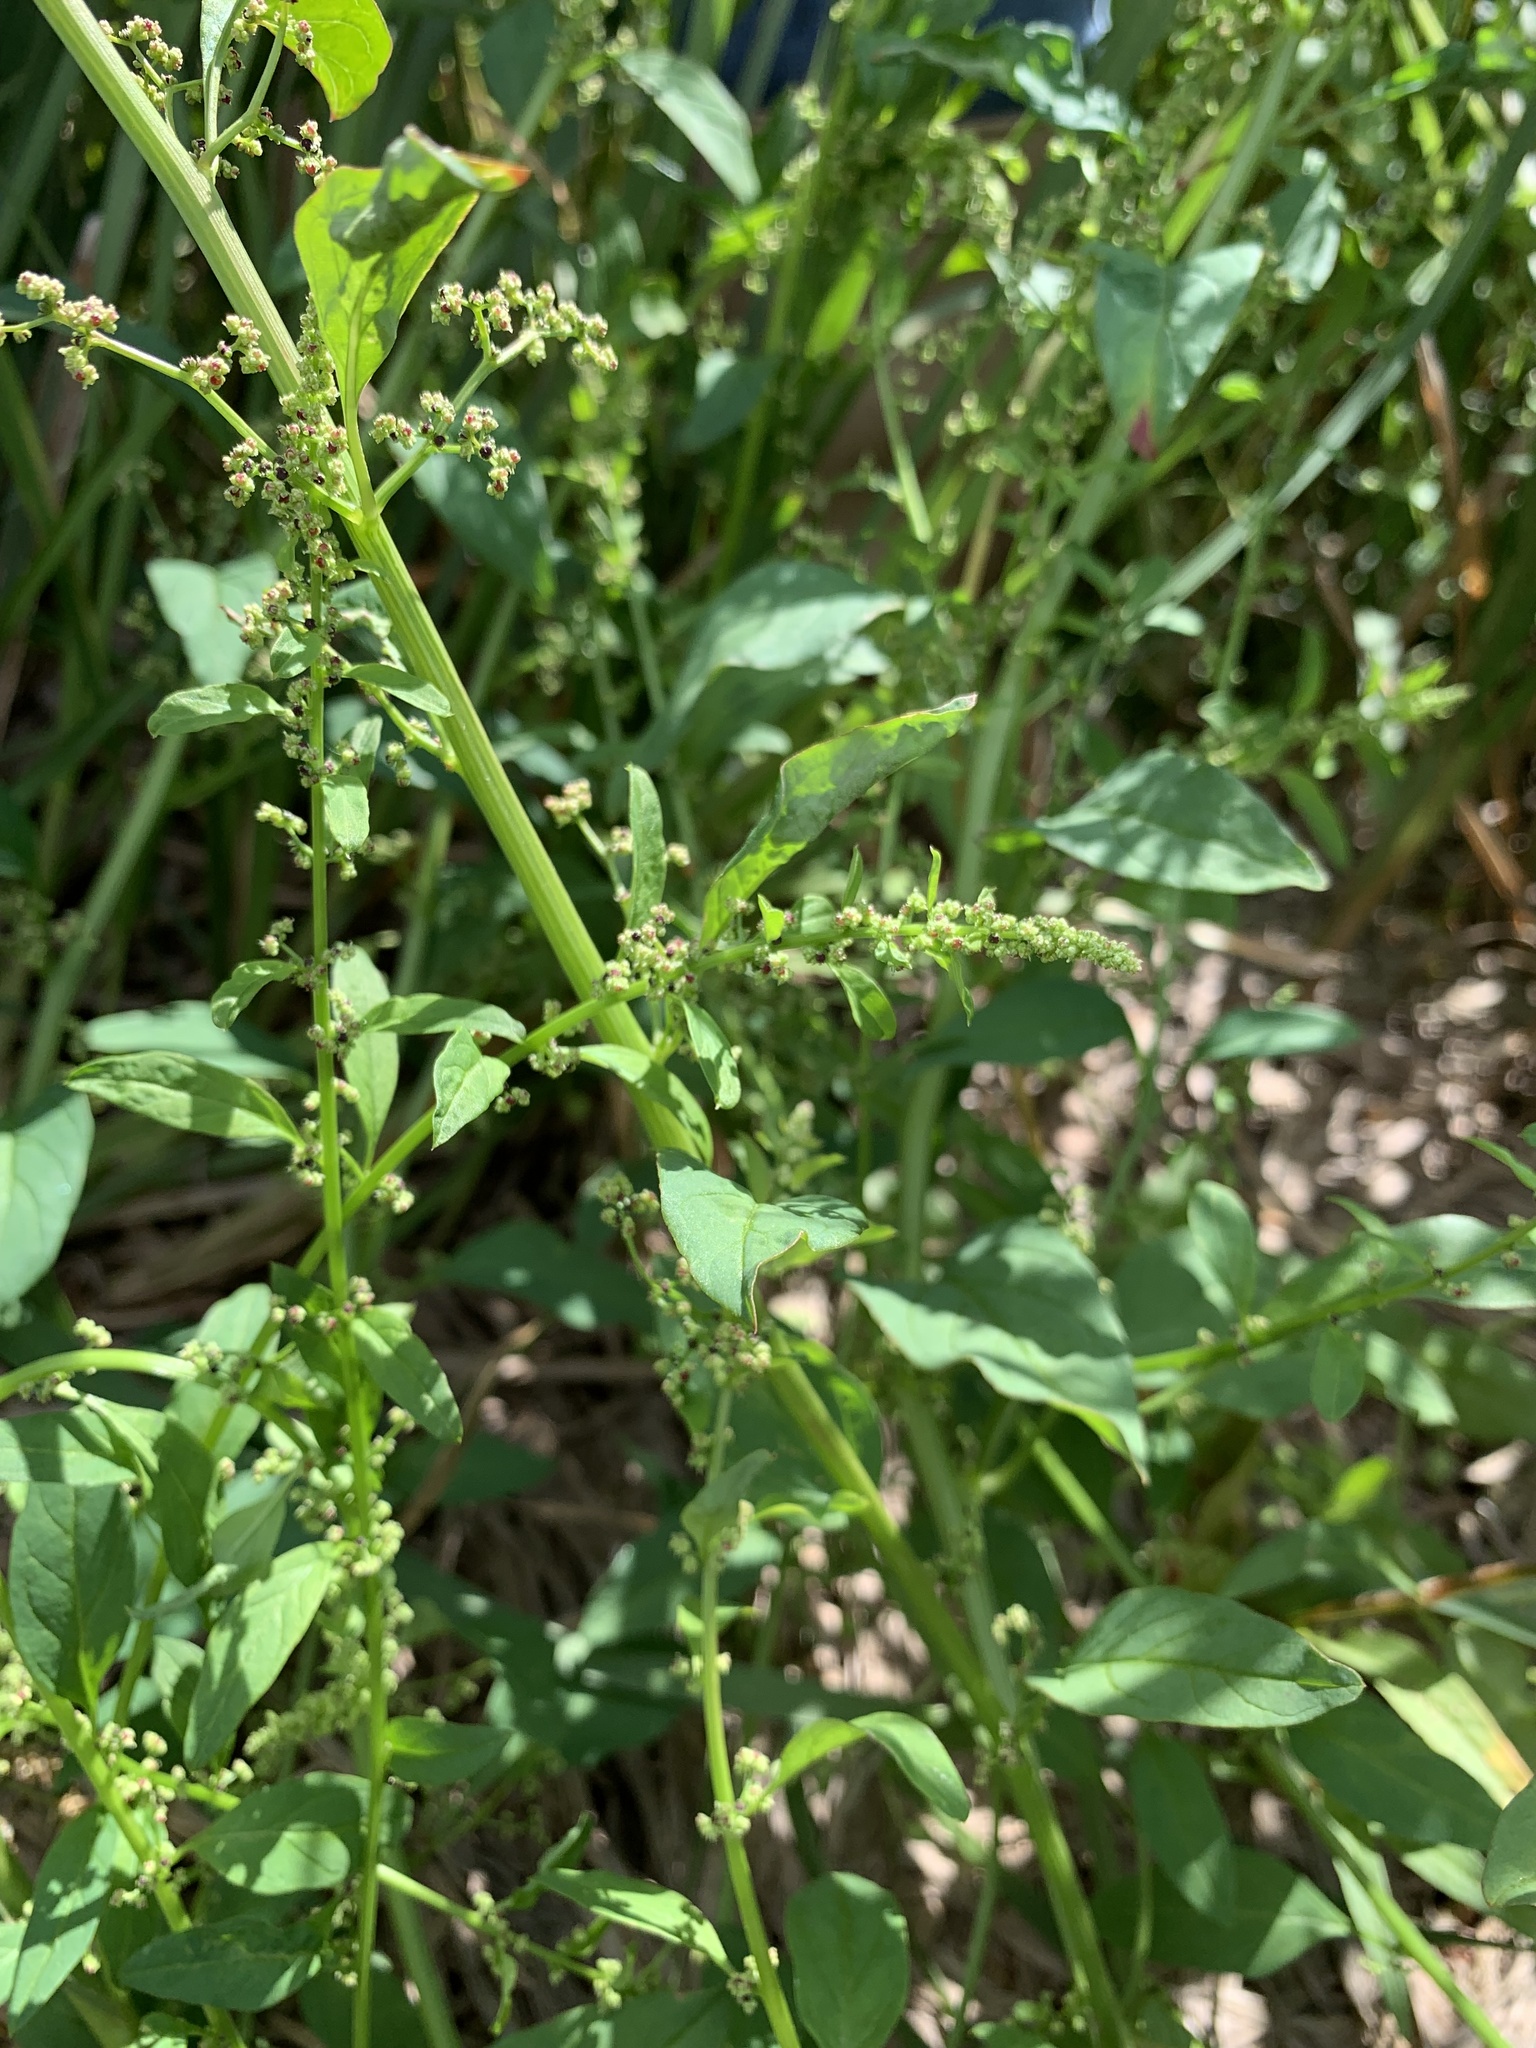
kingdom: Plantae
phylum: Tracheophyta
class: Magnoliopsida
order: Caryophyllales
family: Amaranthaceae
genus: Lipandra
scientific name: Lipandra polysperma
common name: Many-seed goosefoot
